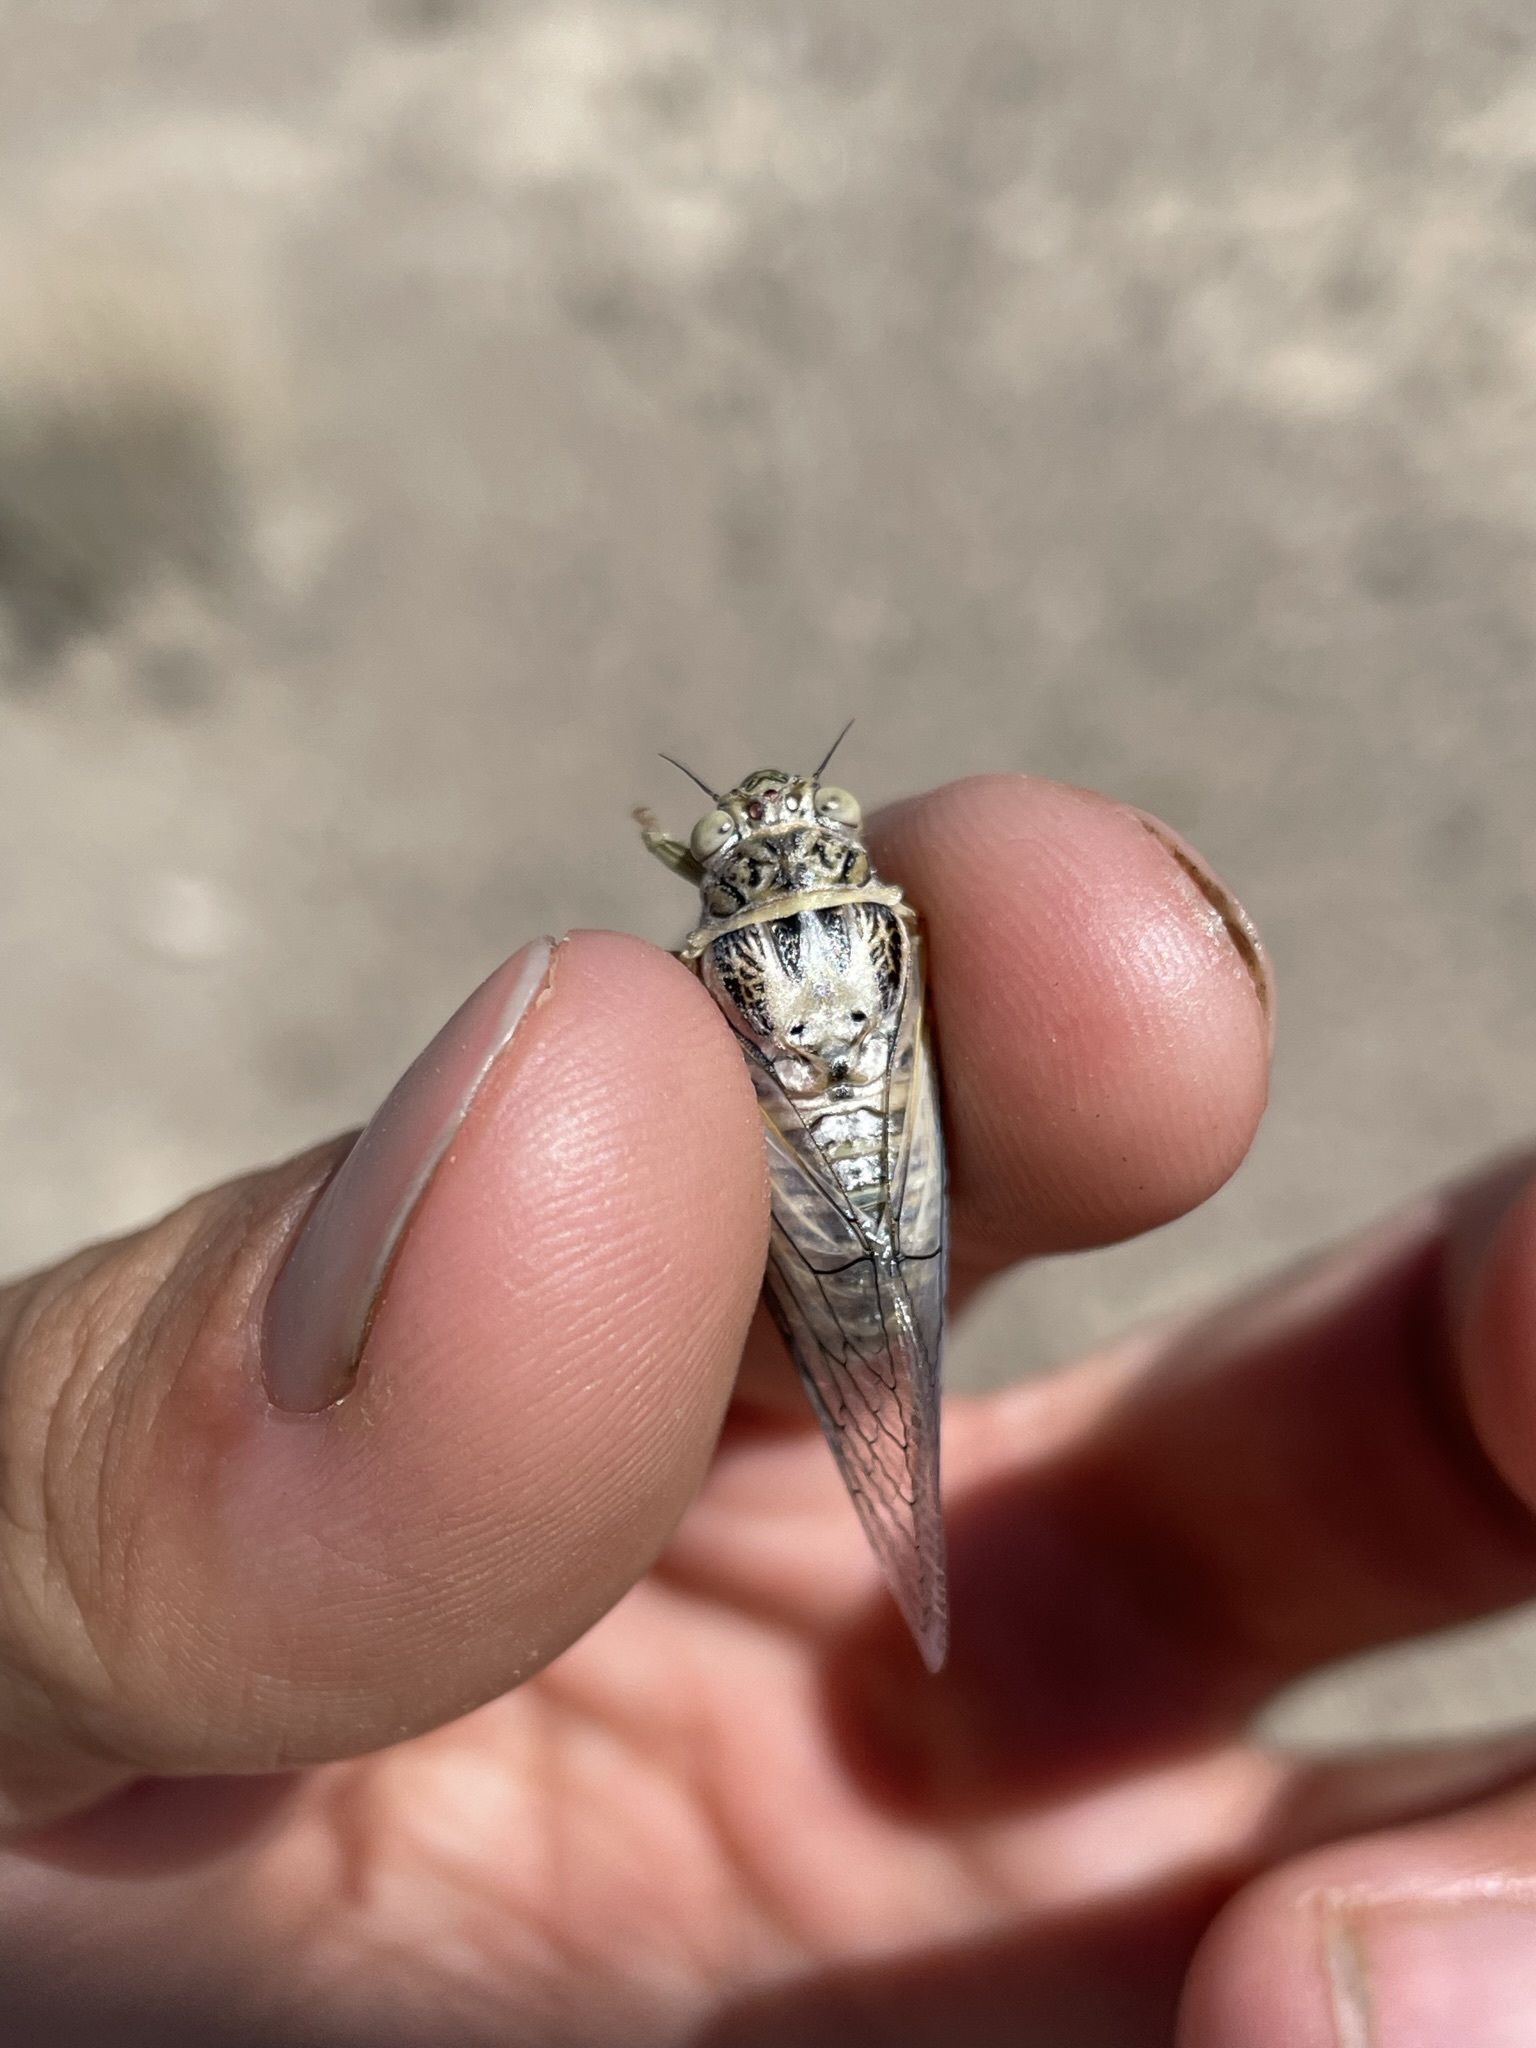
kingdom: Animalia
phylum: Arthropoda
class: Insecta
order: Hemiptera
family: Cicadidae
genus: Okanagodes
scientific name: Okanagodes gracilis
